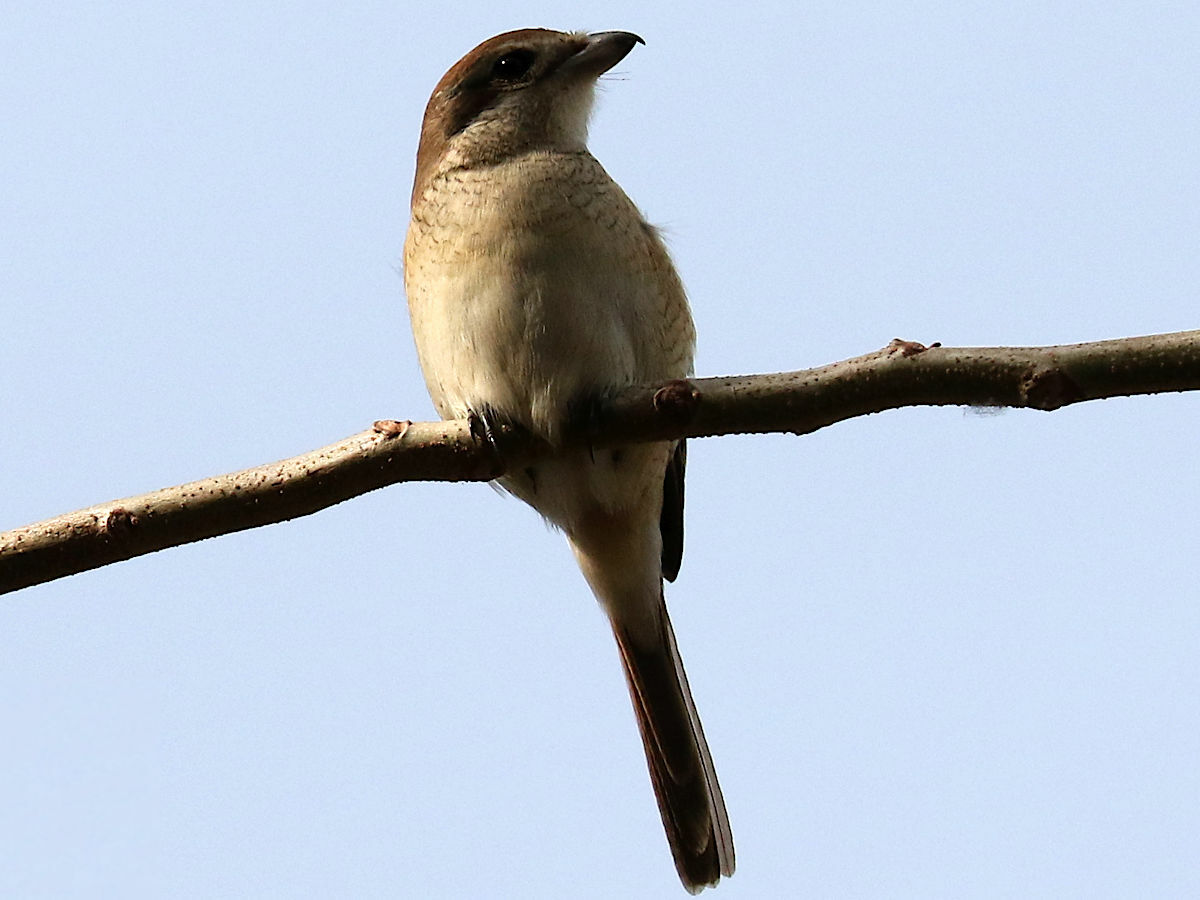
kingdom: Animalia
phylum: Chordata
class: Aves
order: Passeriformes
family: Laniidae
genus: Lanius
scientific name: Lanius cristatus
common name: Brown shrike
